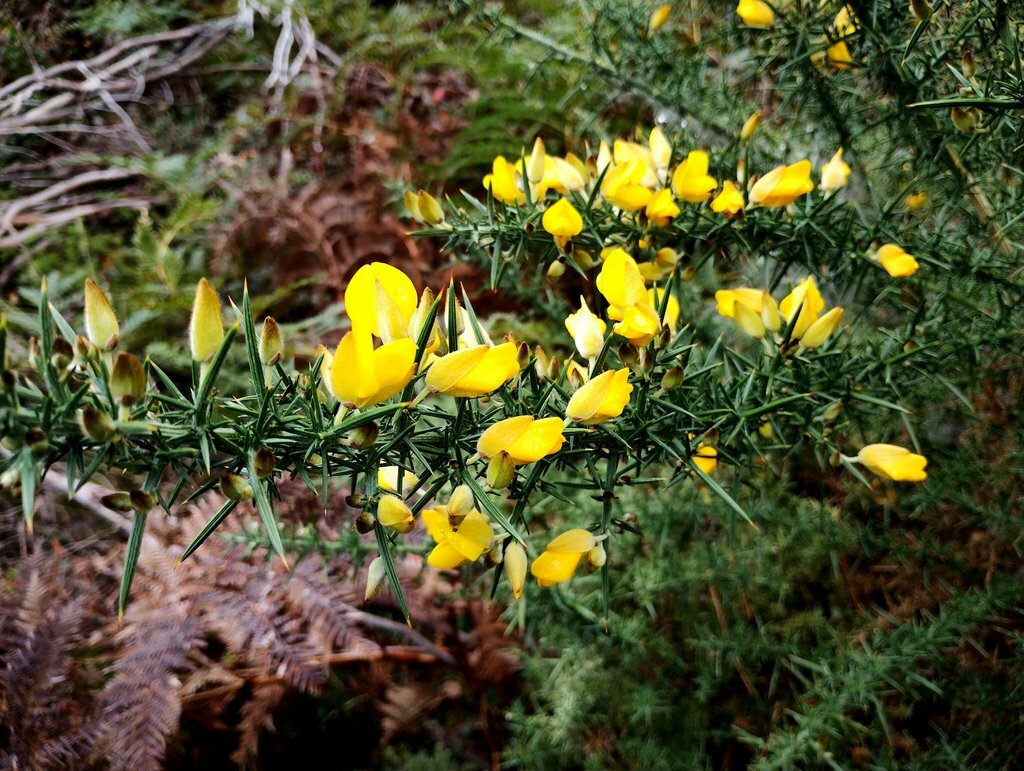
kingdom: Plantae
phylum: Tracheophyta
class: Magnoliopsida
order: Fabales
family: Fabaceae
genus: Ulex
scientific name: Ulex europaeus
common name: Common gorse
